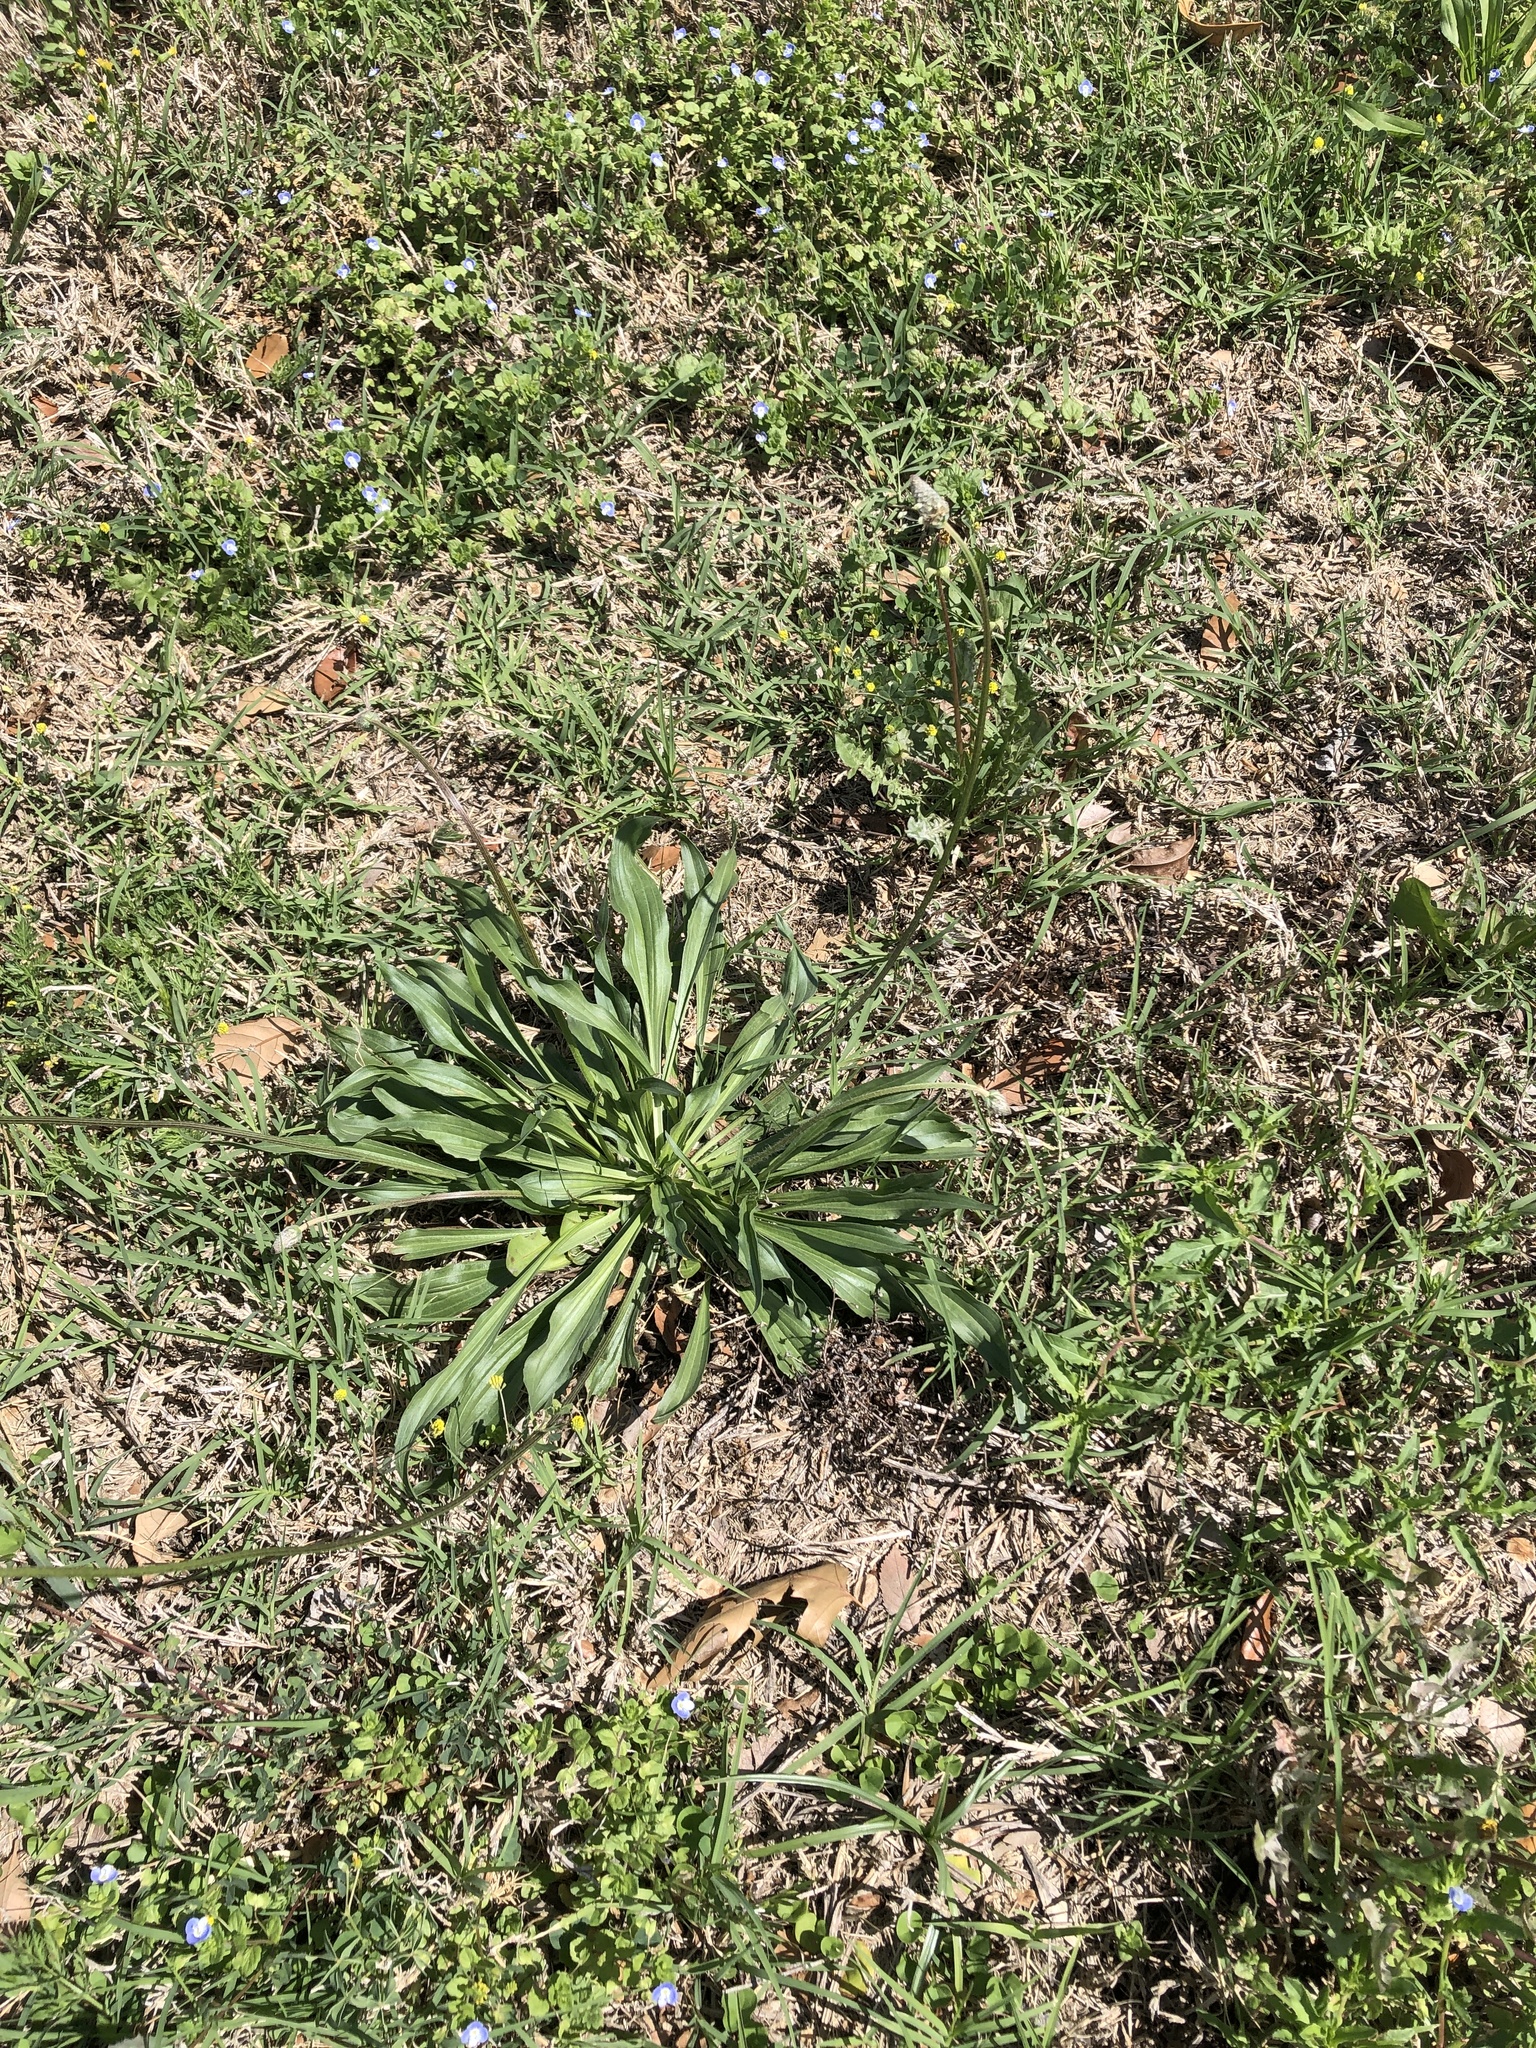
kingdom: Plantae
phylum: Tracheophyta
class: Magnoliopsida
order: Lamiales
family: Plantaginaceae
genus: Plantago
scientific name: Plantago lanceolata
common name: Ribwort plantain
